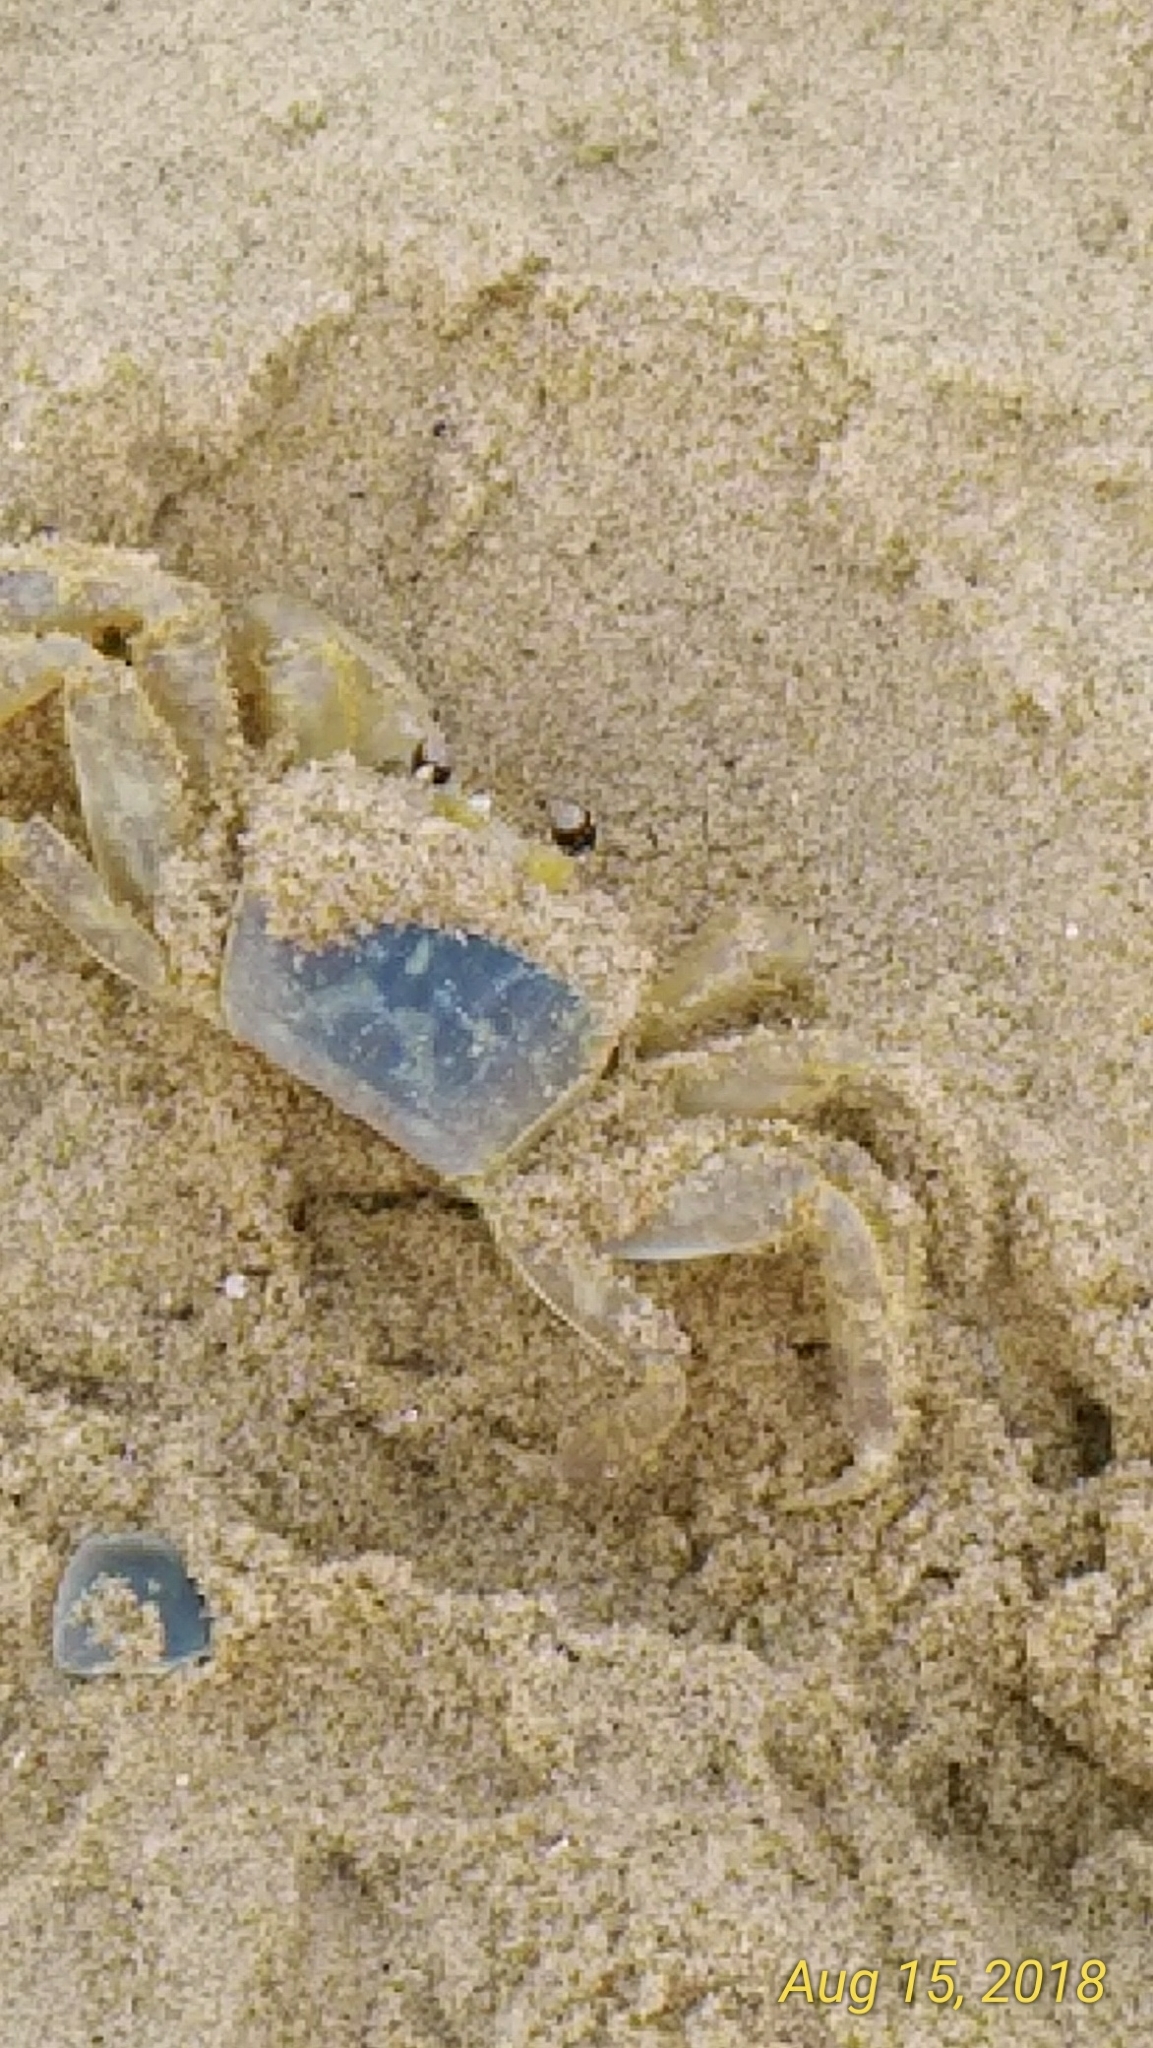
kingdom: Animalia
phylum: Arthropoda
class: Malacostraca
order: Decapoda
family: Ocypodidae
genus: Ocypode
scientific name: Ocypode quadrata
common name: Ghost crab
